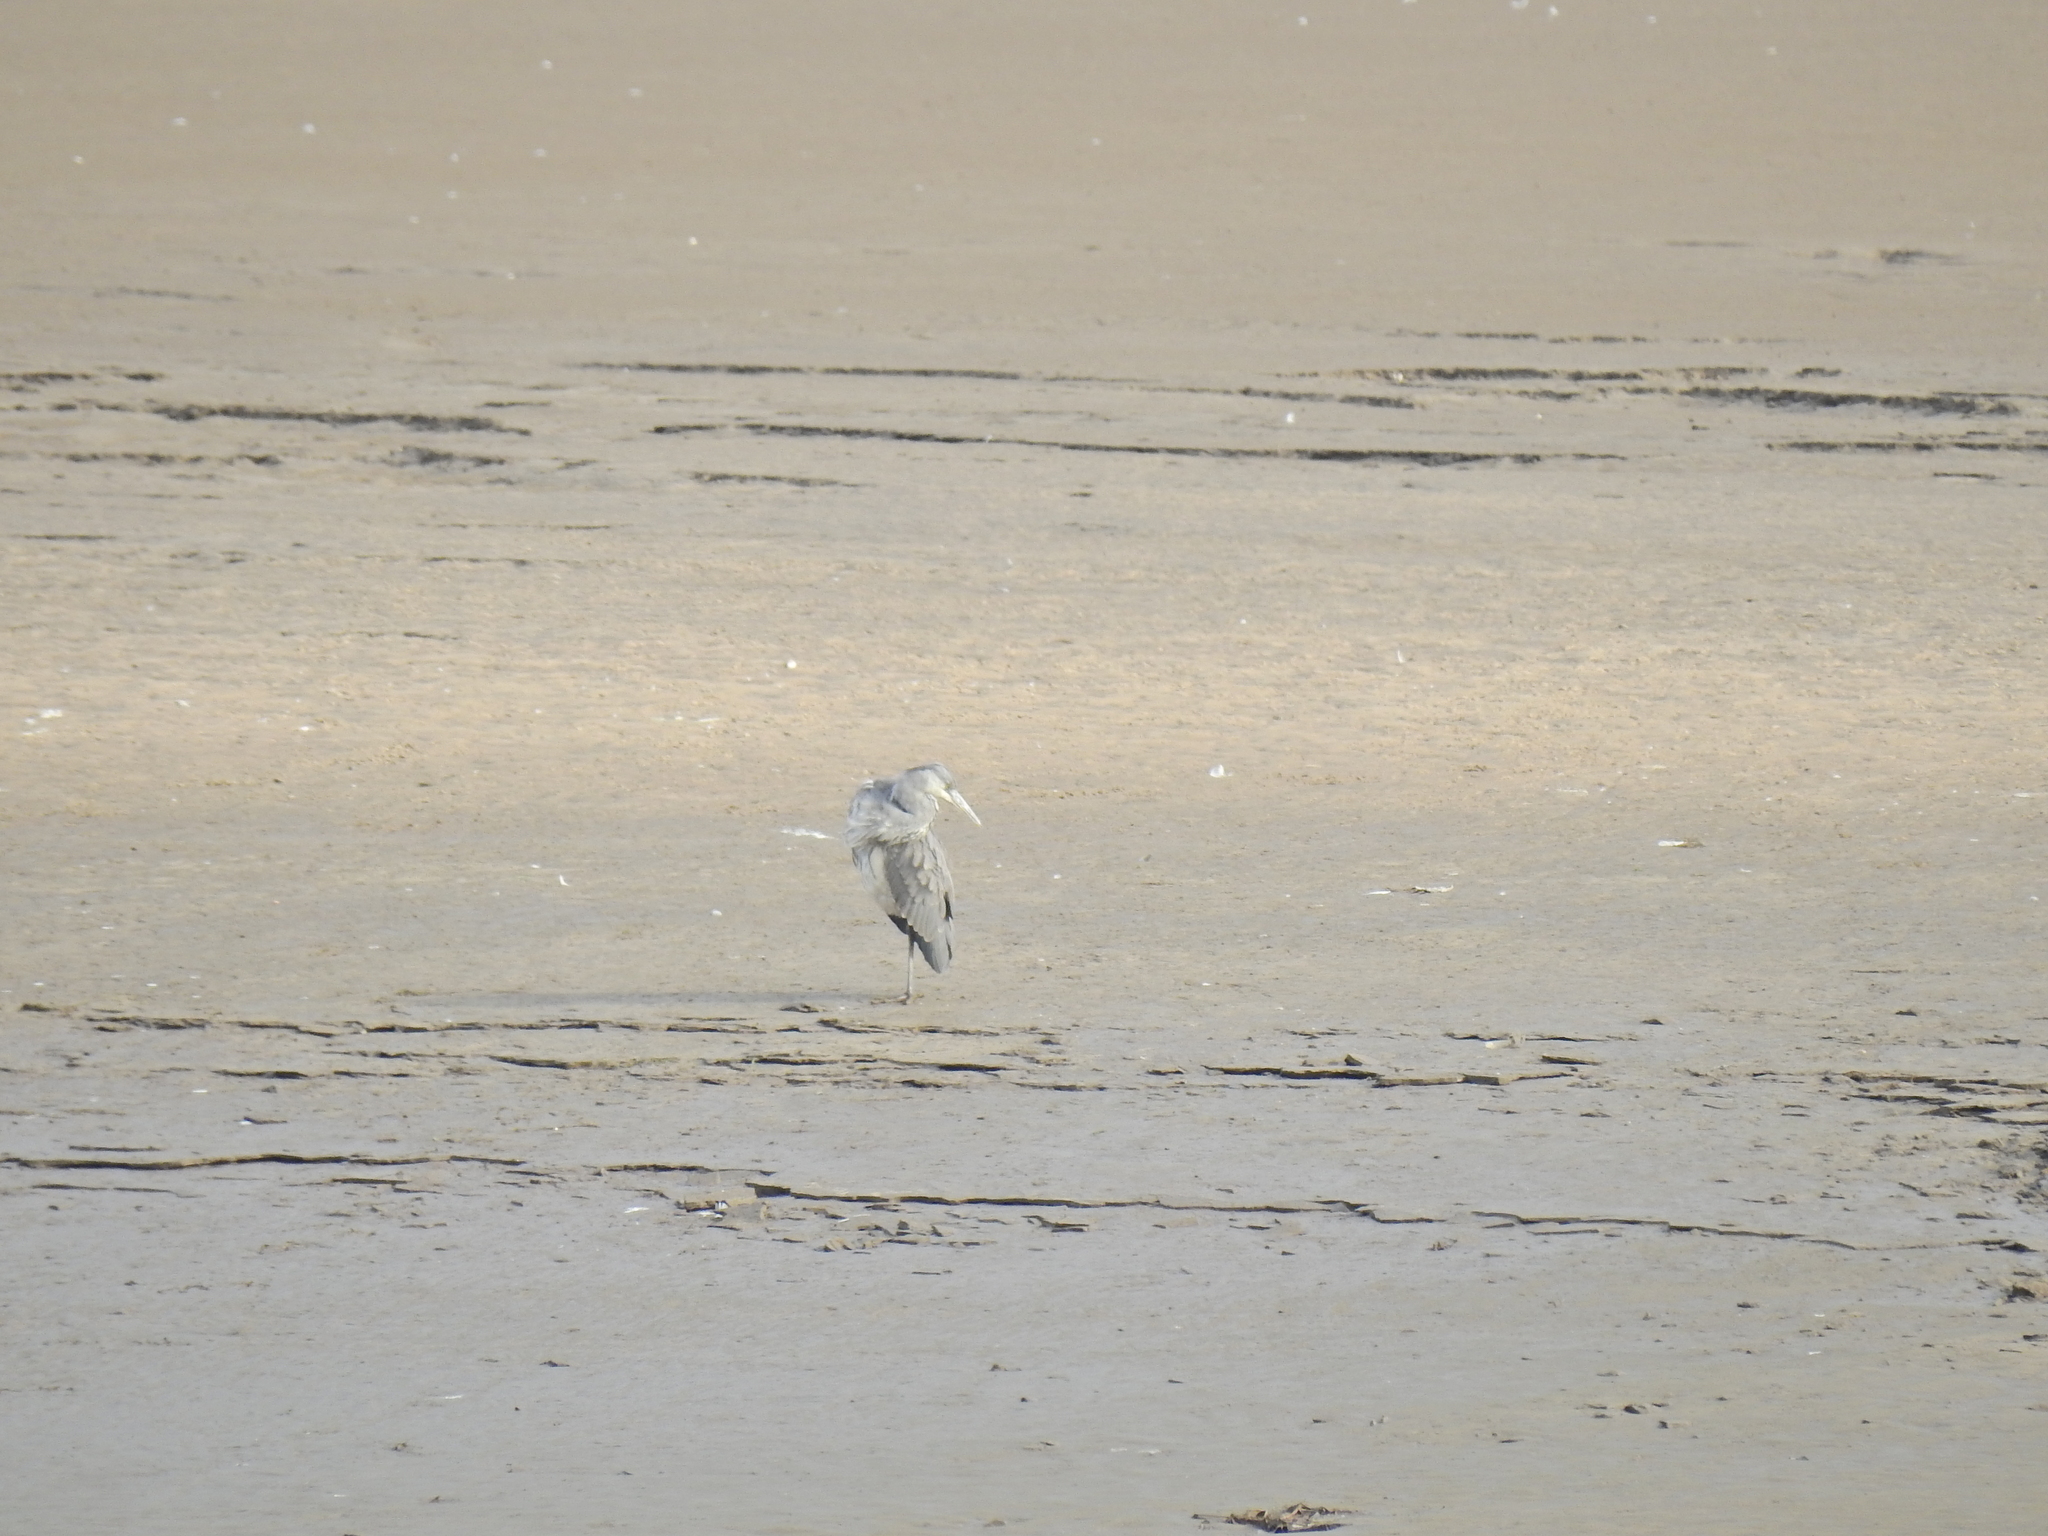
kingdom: Animalia
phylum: Chordata
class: Aves
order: Pelecaniformes
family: Ardeidae
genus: Ardea
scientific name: Ardea cinerea
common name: Grey heron
